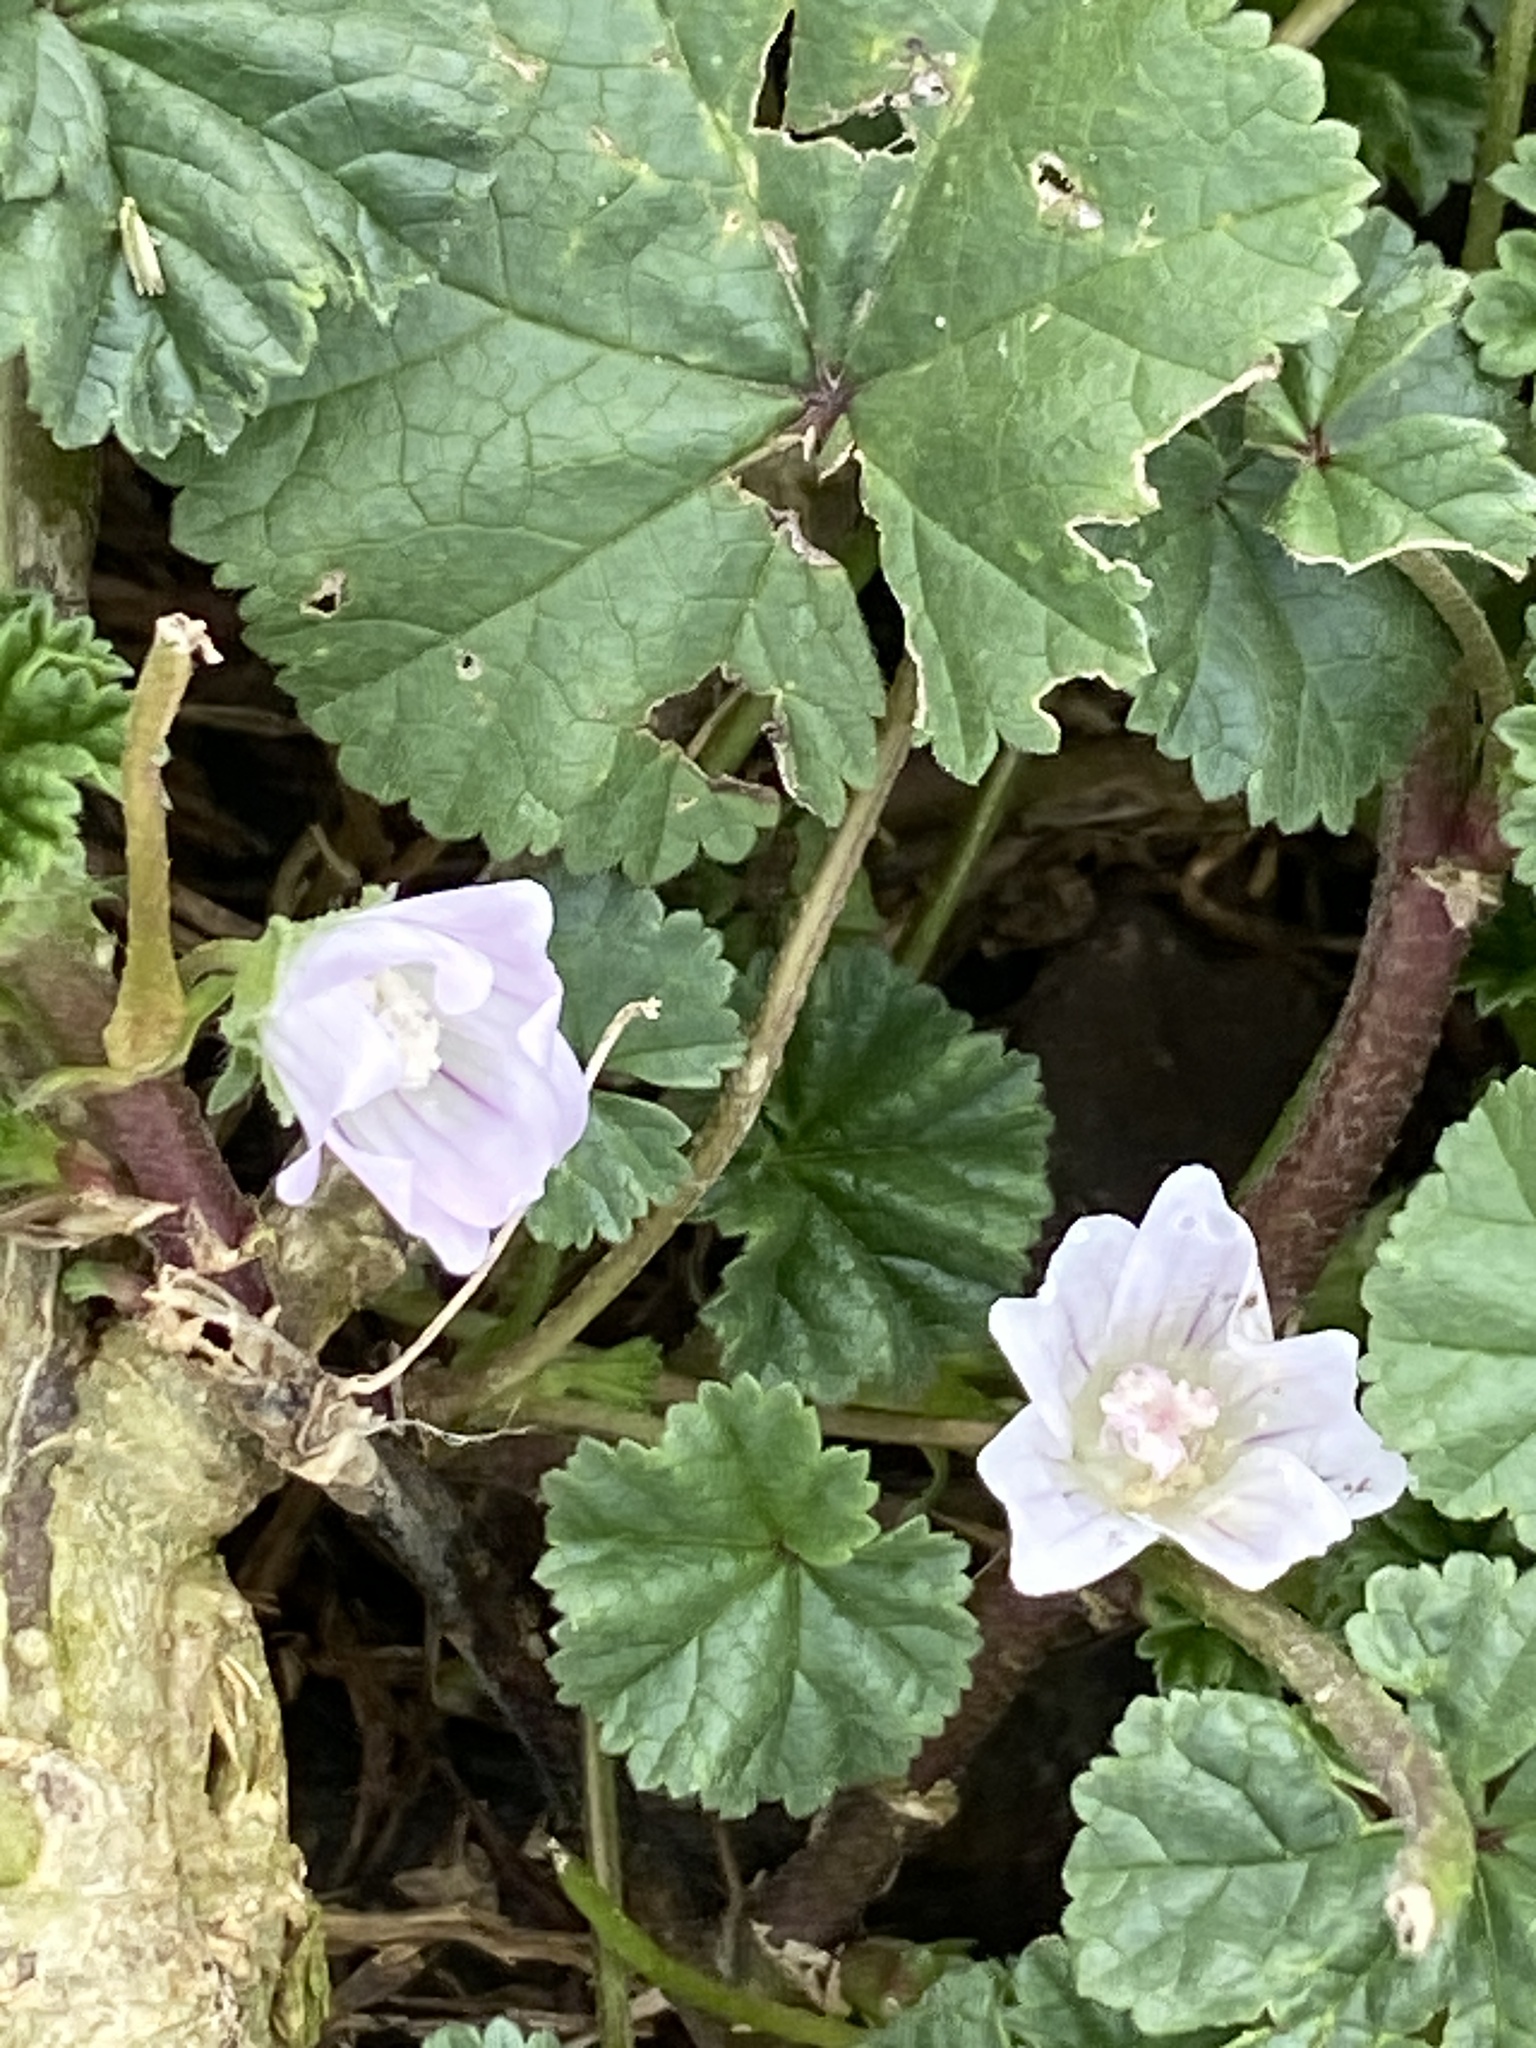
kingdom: Plantae
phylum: Tracheophyta
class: Magnoliopsida
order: Malvales
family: Malvaceae
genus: Malva
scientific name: Malva neglecta
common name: Common mallow
